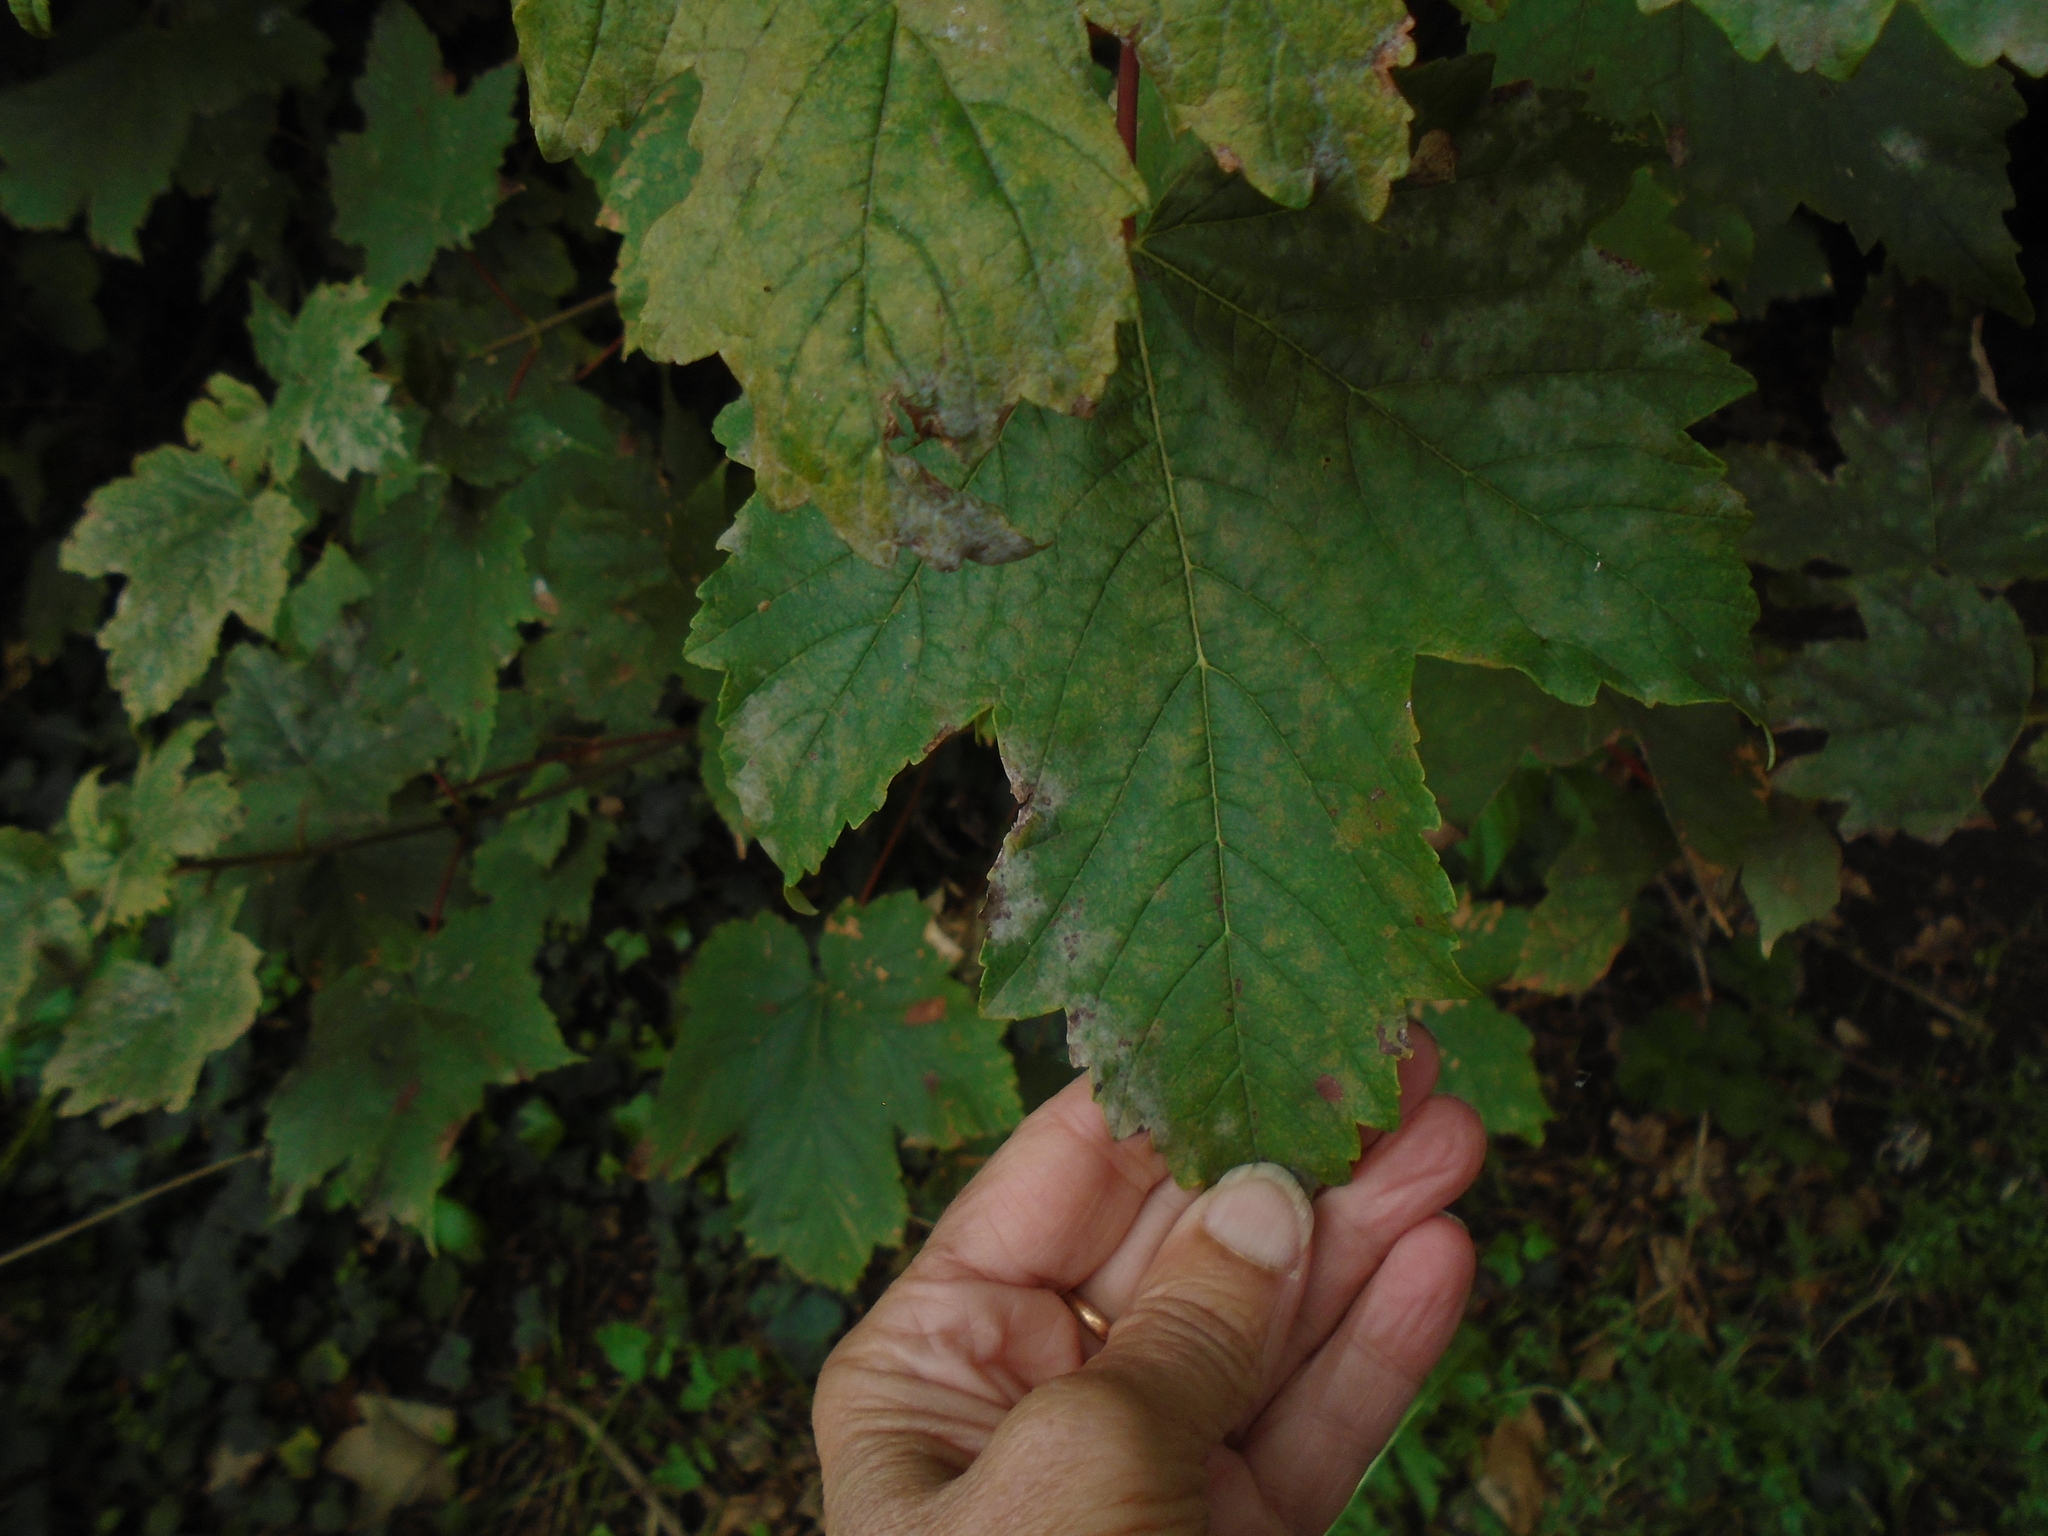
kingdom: Fungi
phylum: Ascomycota
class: Leotiomycetes
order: Helotiales
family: Erysiphaceae
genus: Sawadaea
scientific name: Sawadaea bicornis
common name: Maple mildew
